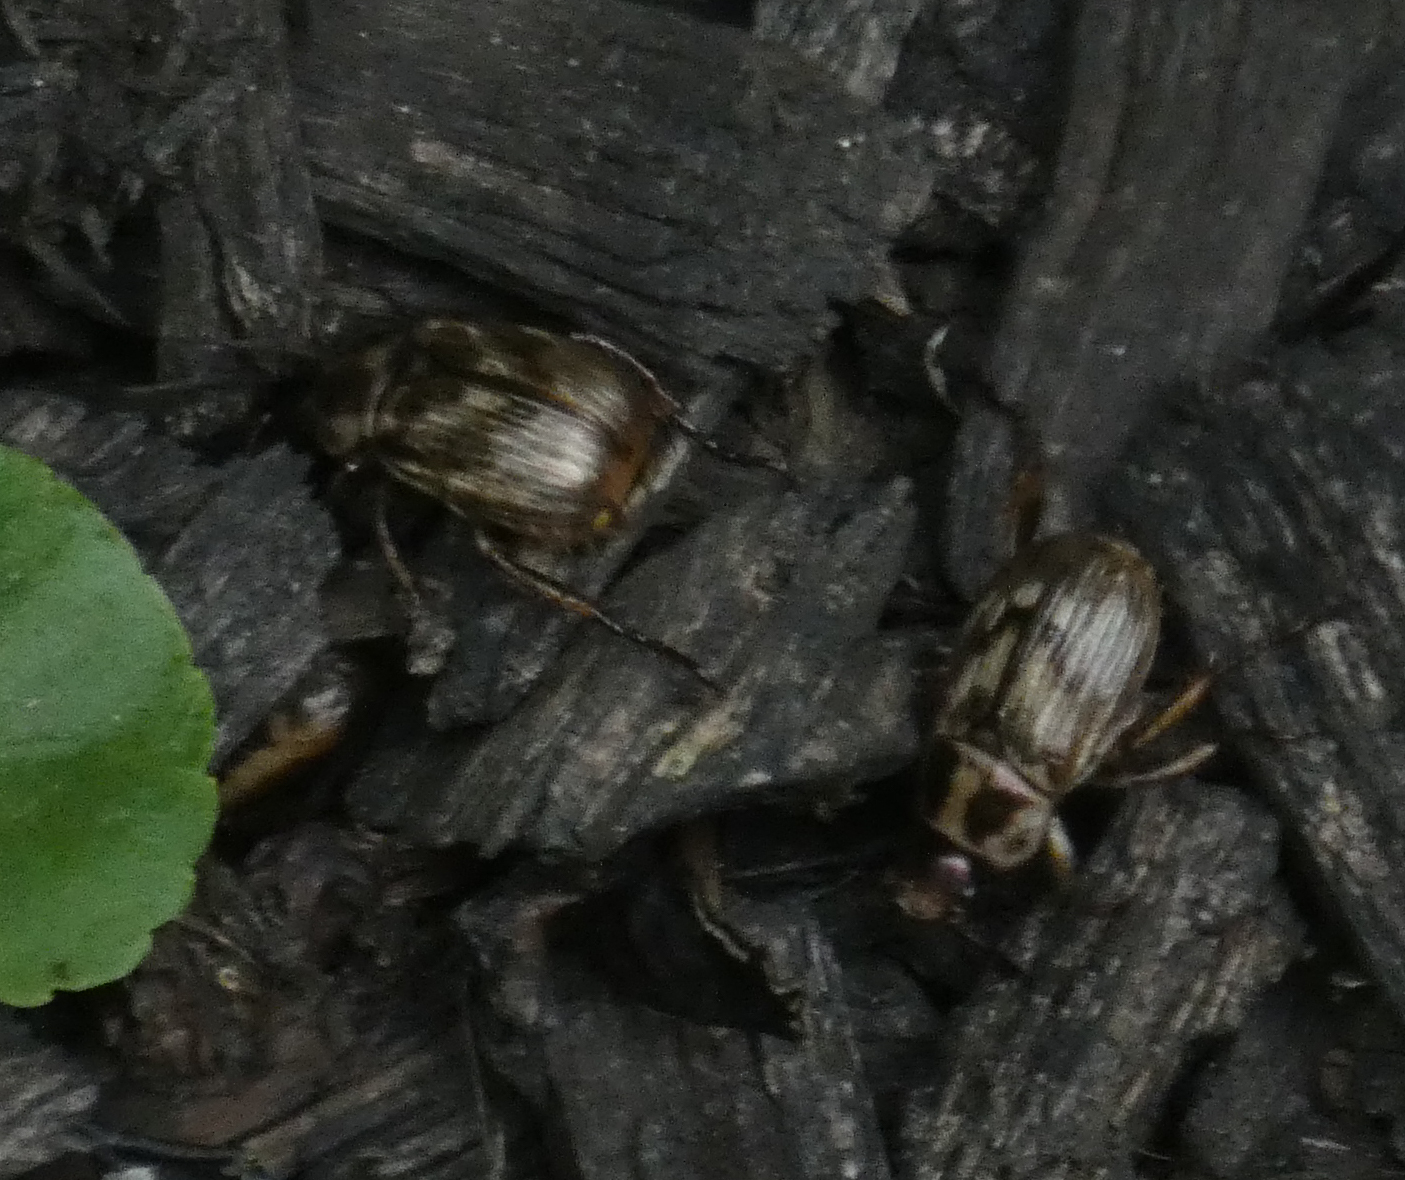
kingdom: Animalia
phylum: Arthropoda
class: Insecta
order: Coleoptera
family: Scarabaeidae
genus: Exomala
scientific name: Exomala orientalis
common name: Oriental beetle
